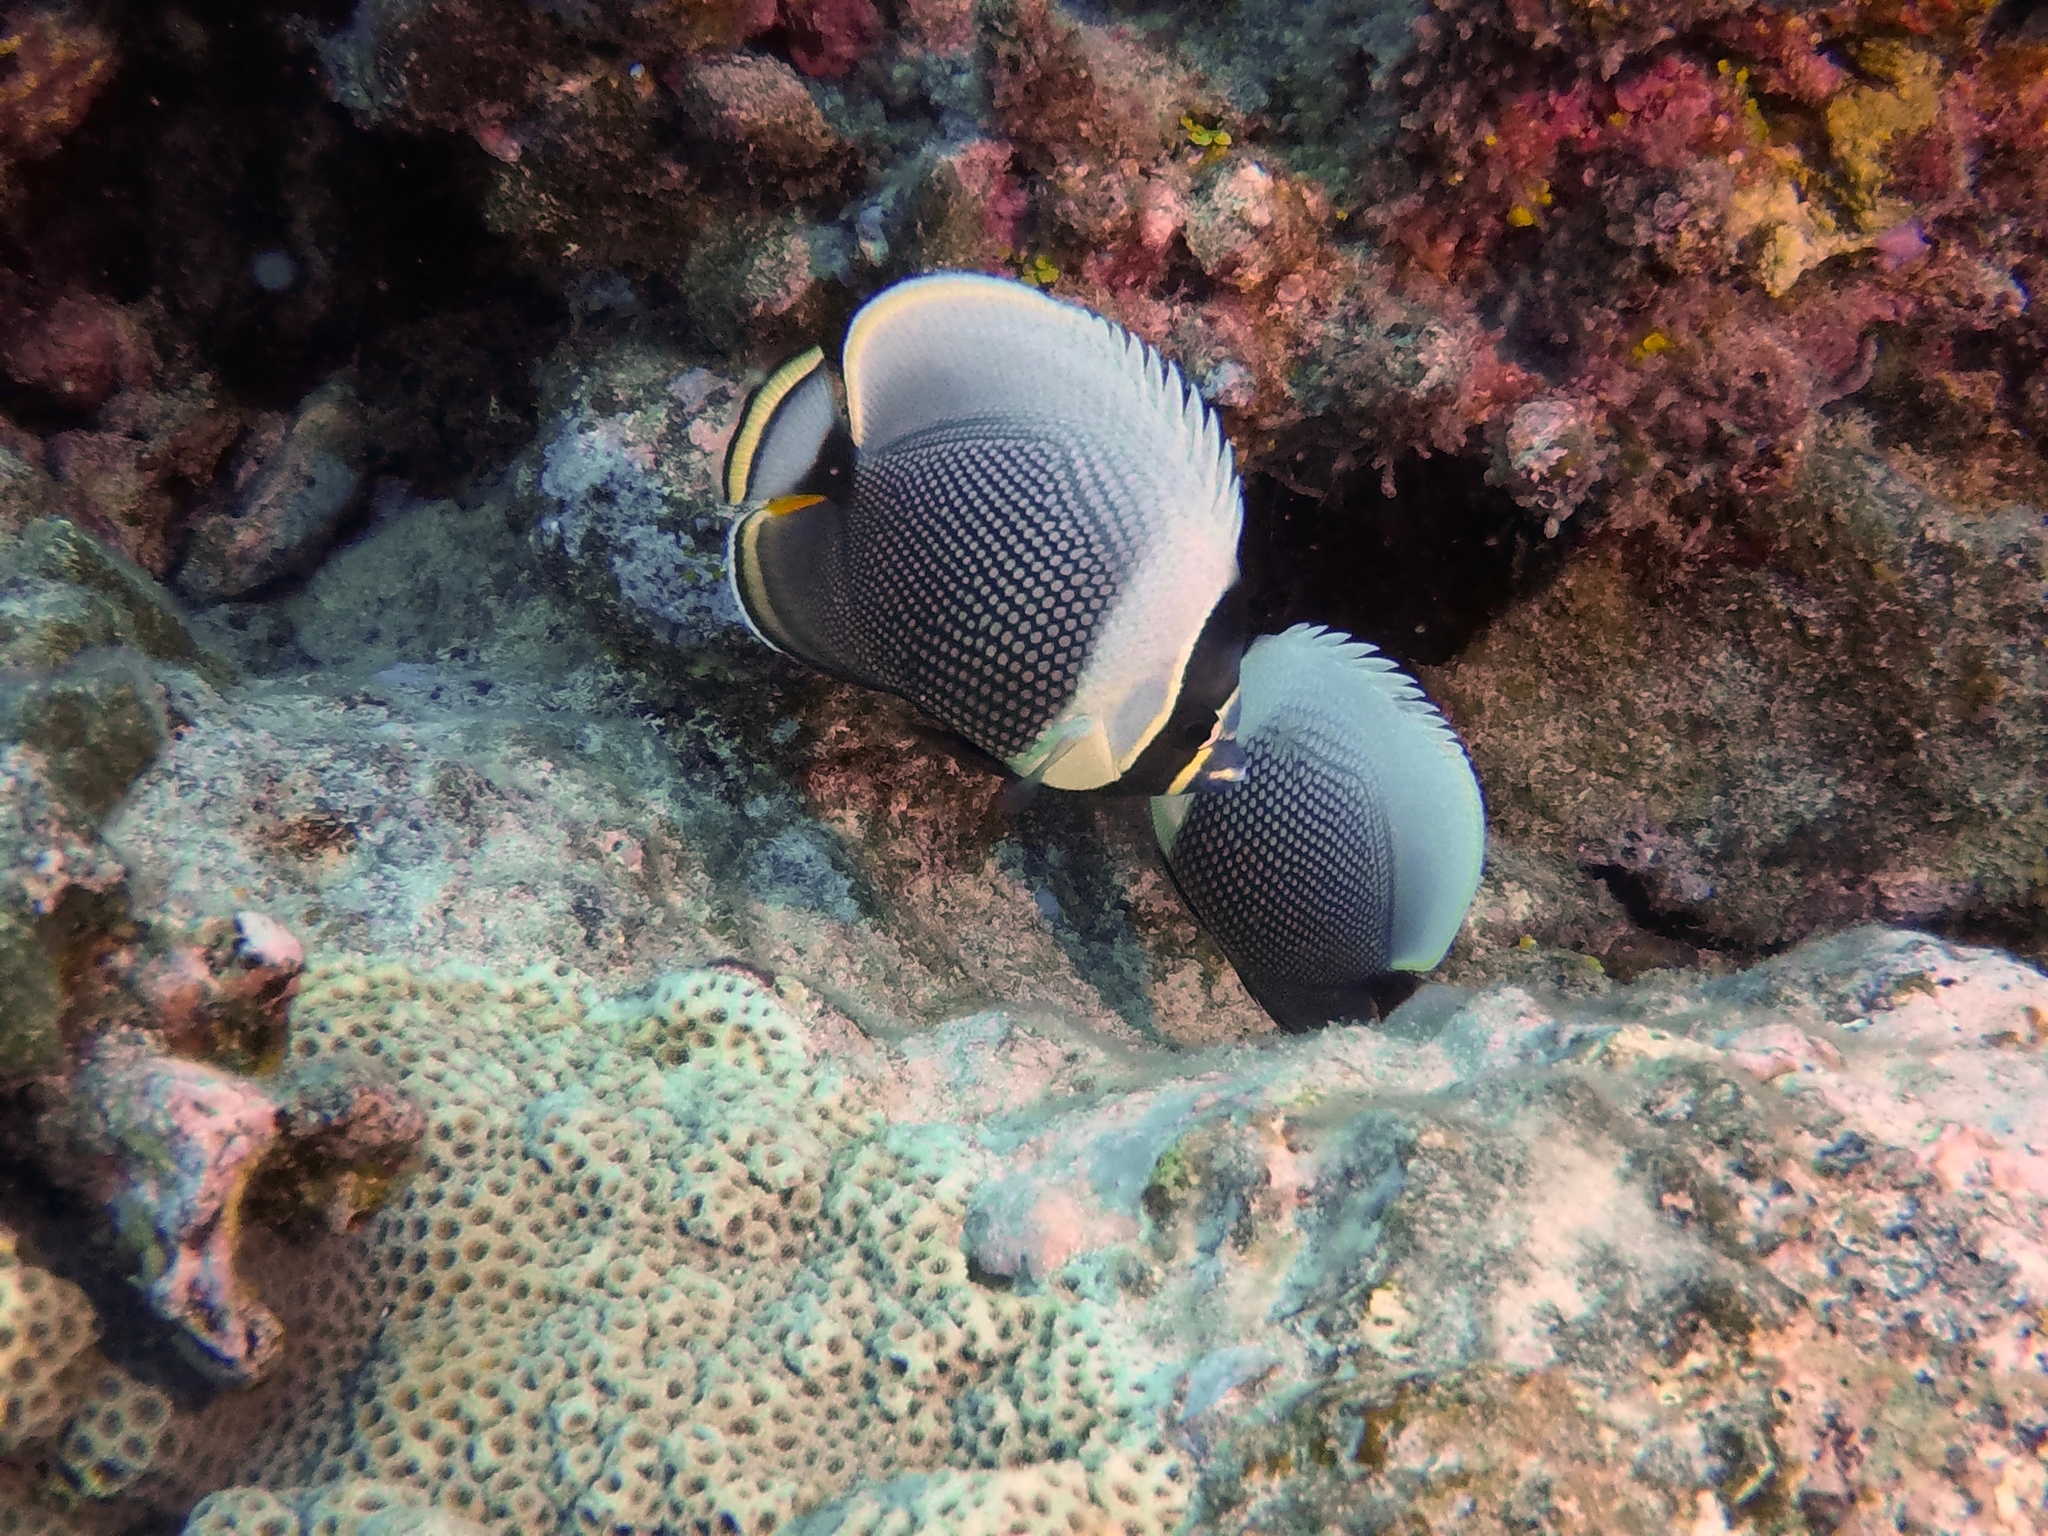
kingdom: Animalia
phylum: Chordata
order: Perciformes
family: Chaetodontidae
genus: Chaetodon
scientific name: Chaetodon reticulatus
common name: Reticulated butterflyfish
